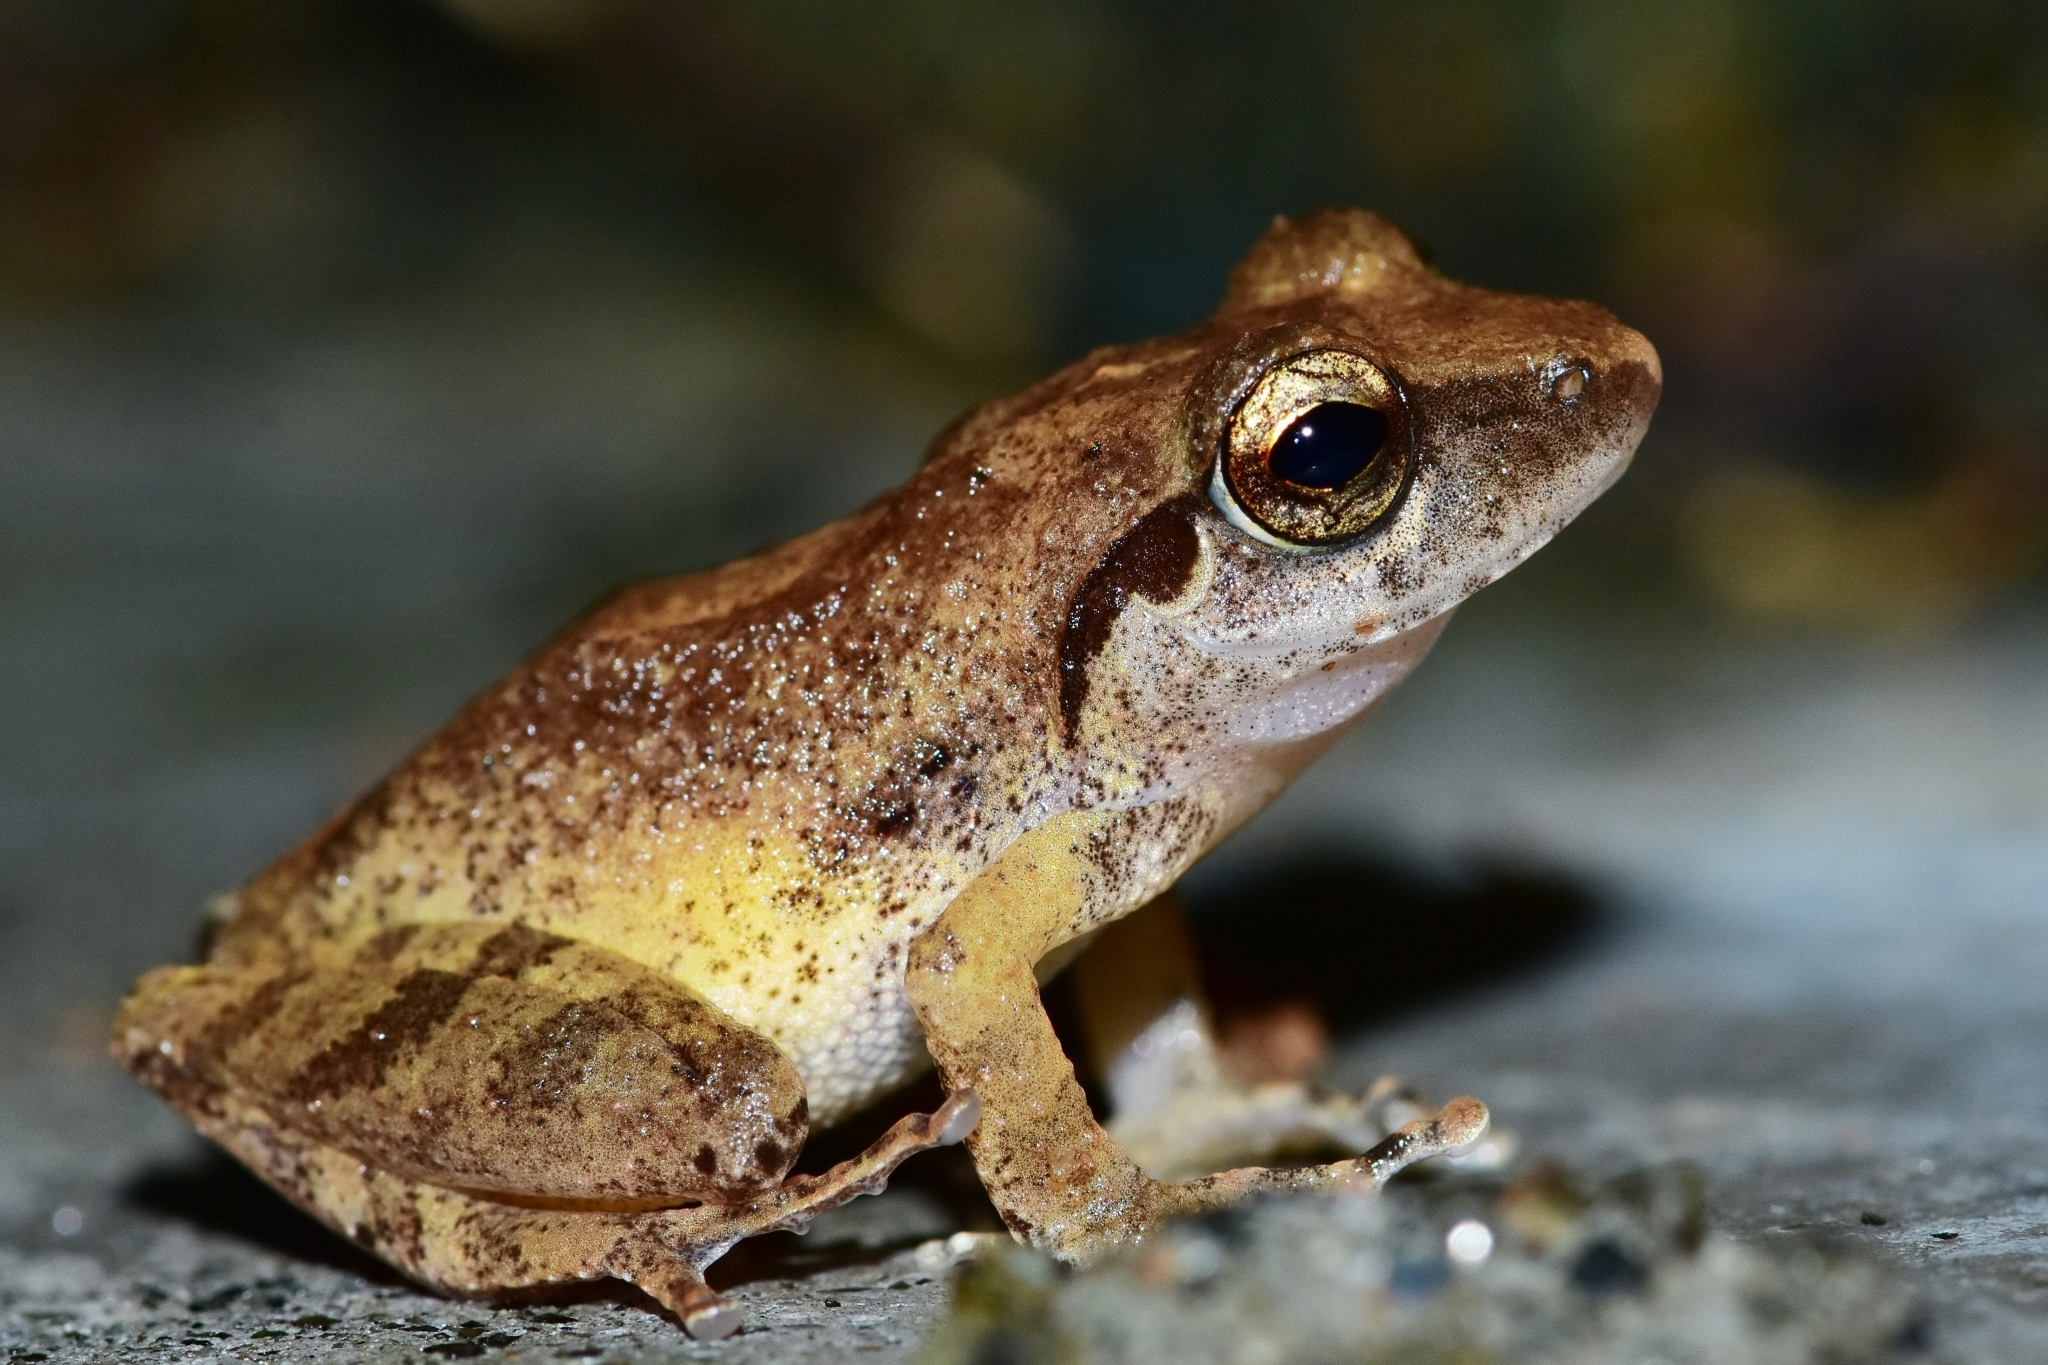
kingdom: Animalia
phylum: Chordata
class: Amphibia
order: Anura
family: Rhacophoridae
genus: Pseudophilautus
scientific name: Pseudophilautus wynaadensis
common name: Dark-eared bush frog
